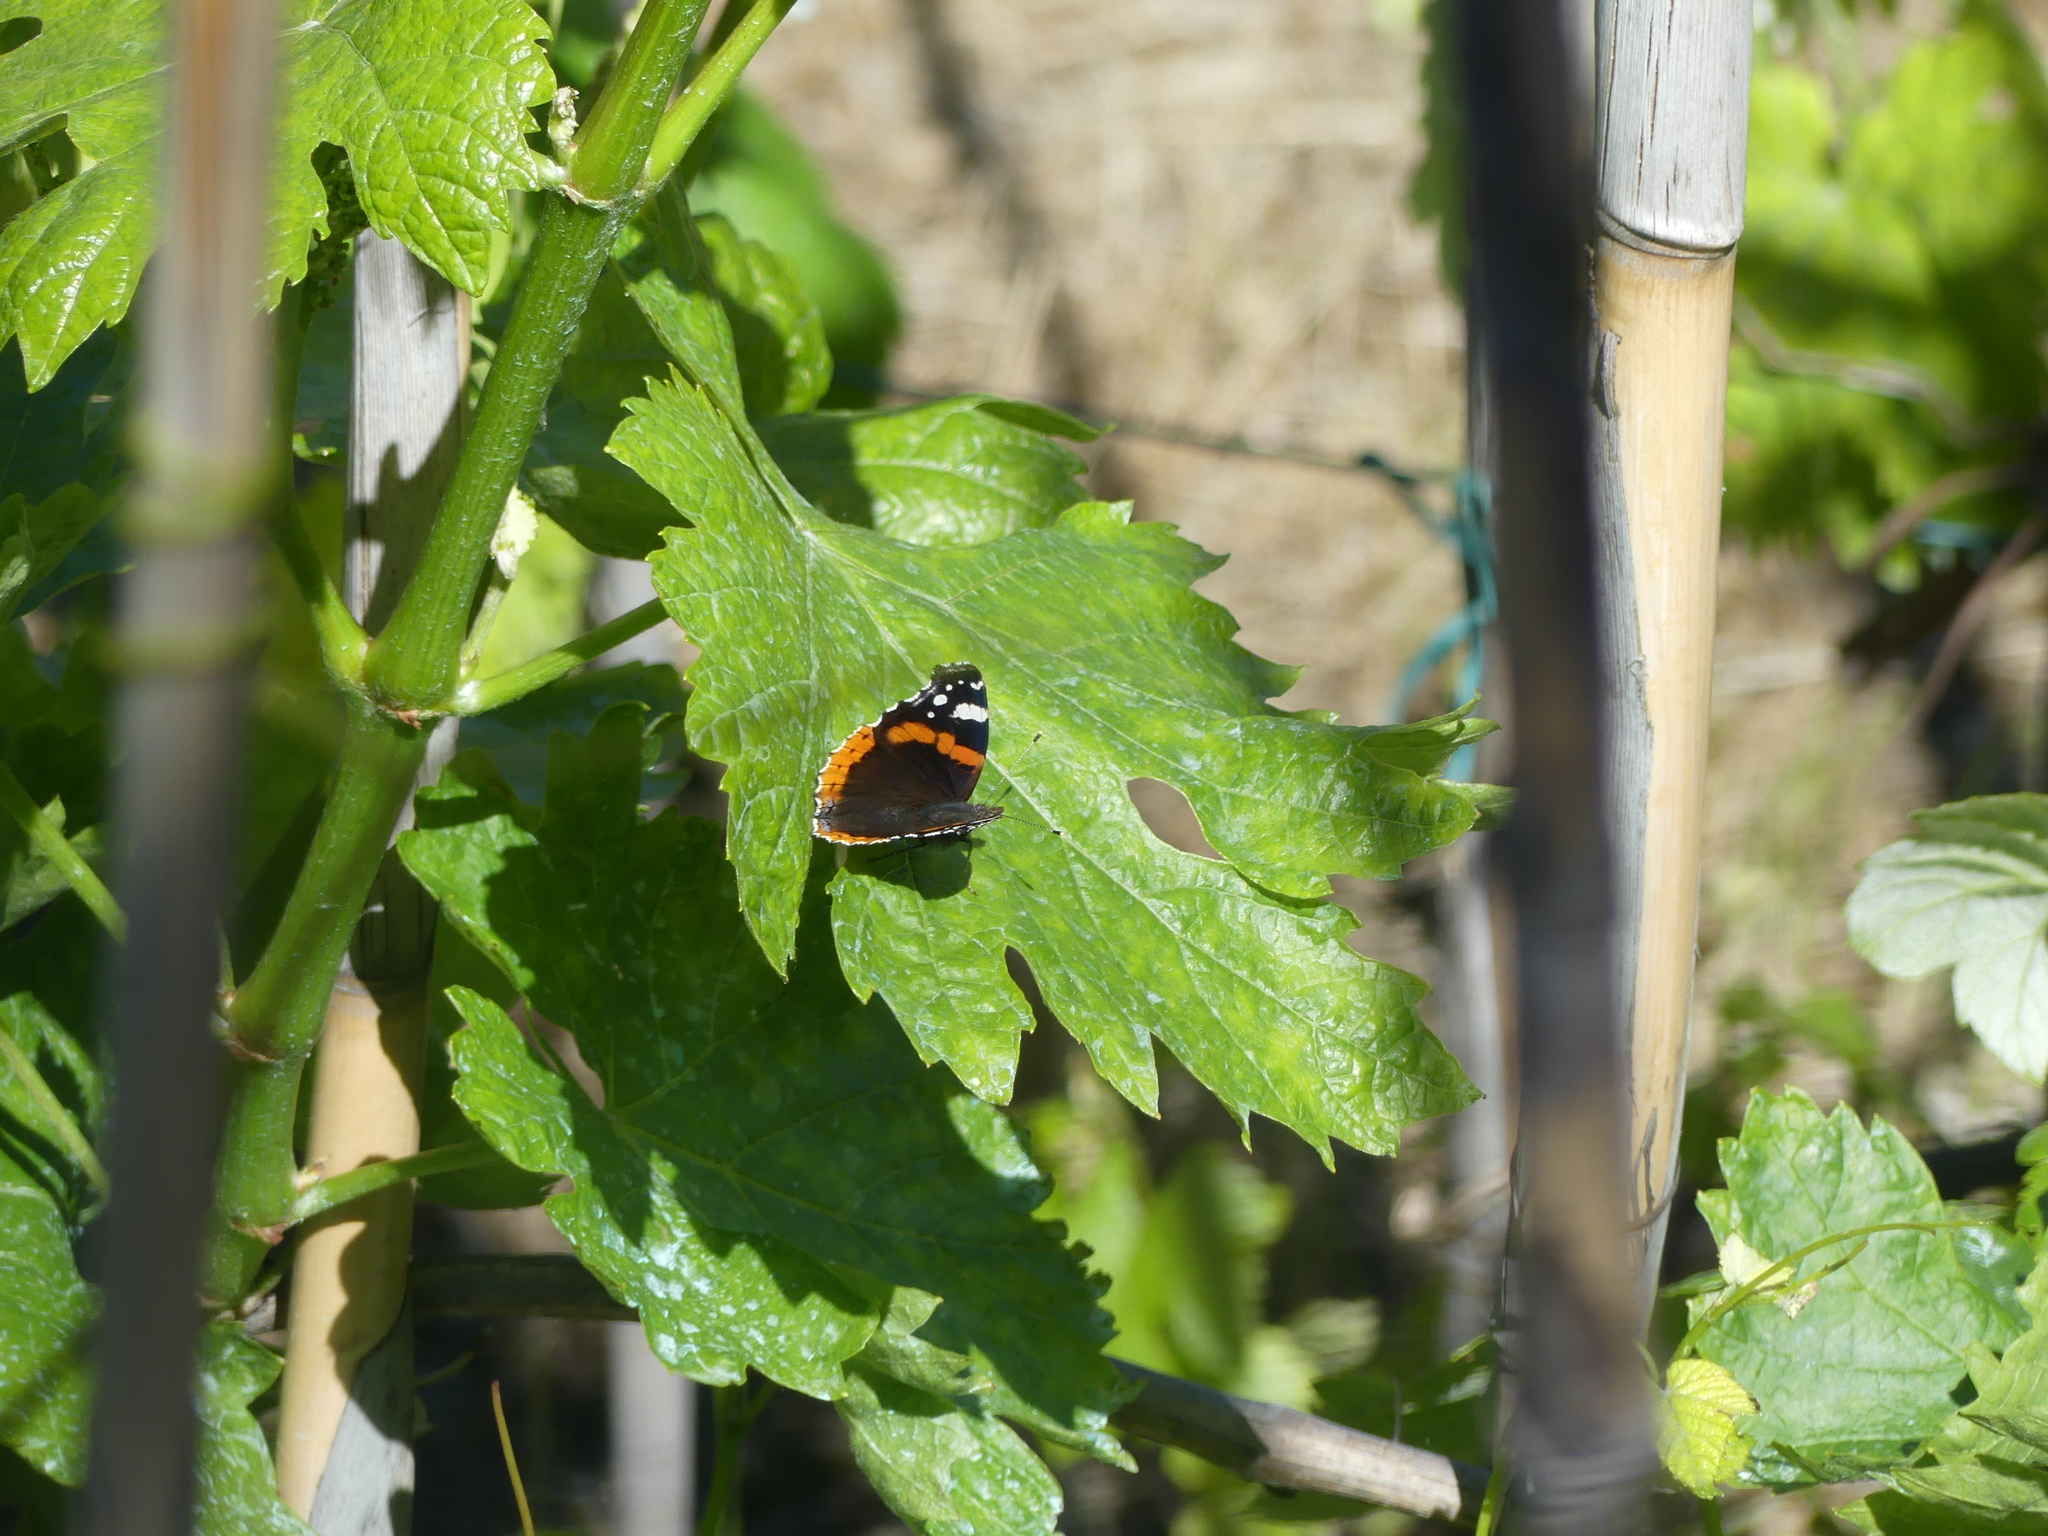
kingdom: Animalia
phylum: Arthropoda
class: Insecta
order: Lepidoptera
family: Nymphalidae
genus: Vanessa
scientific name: Vanessa atalanta
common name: Red admiral
